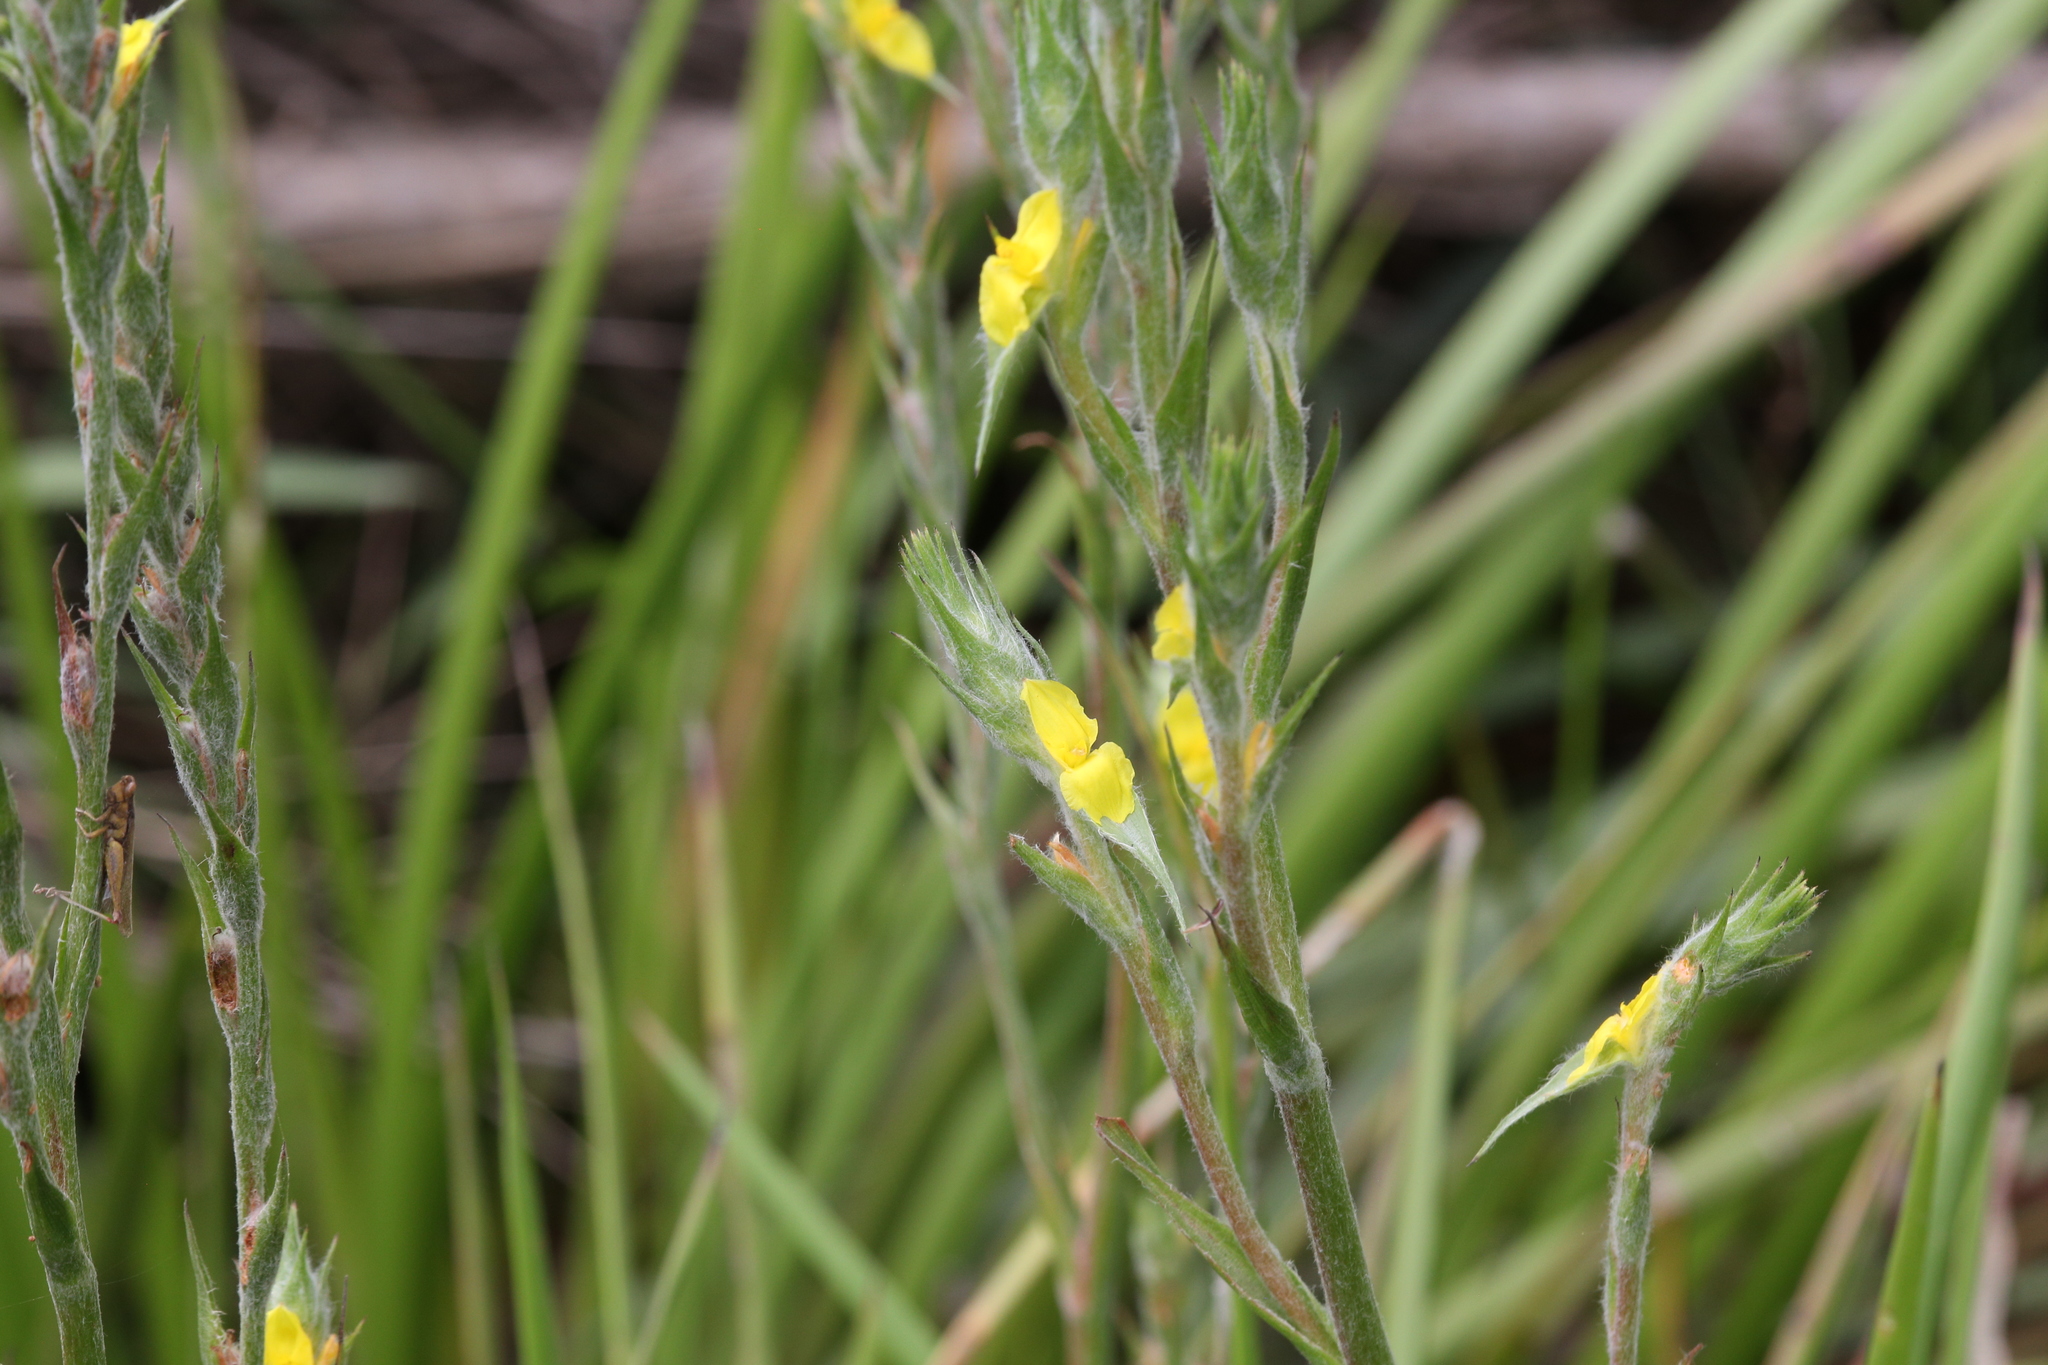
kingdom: Plantae
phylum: Tracheophyta
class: Liliopsida
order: Commelinales
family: Philydraceae
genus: Philydrum
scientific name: Philydrum lanuginosum
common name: Woolly frog's mouth
